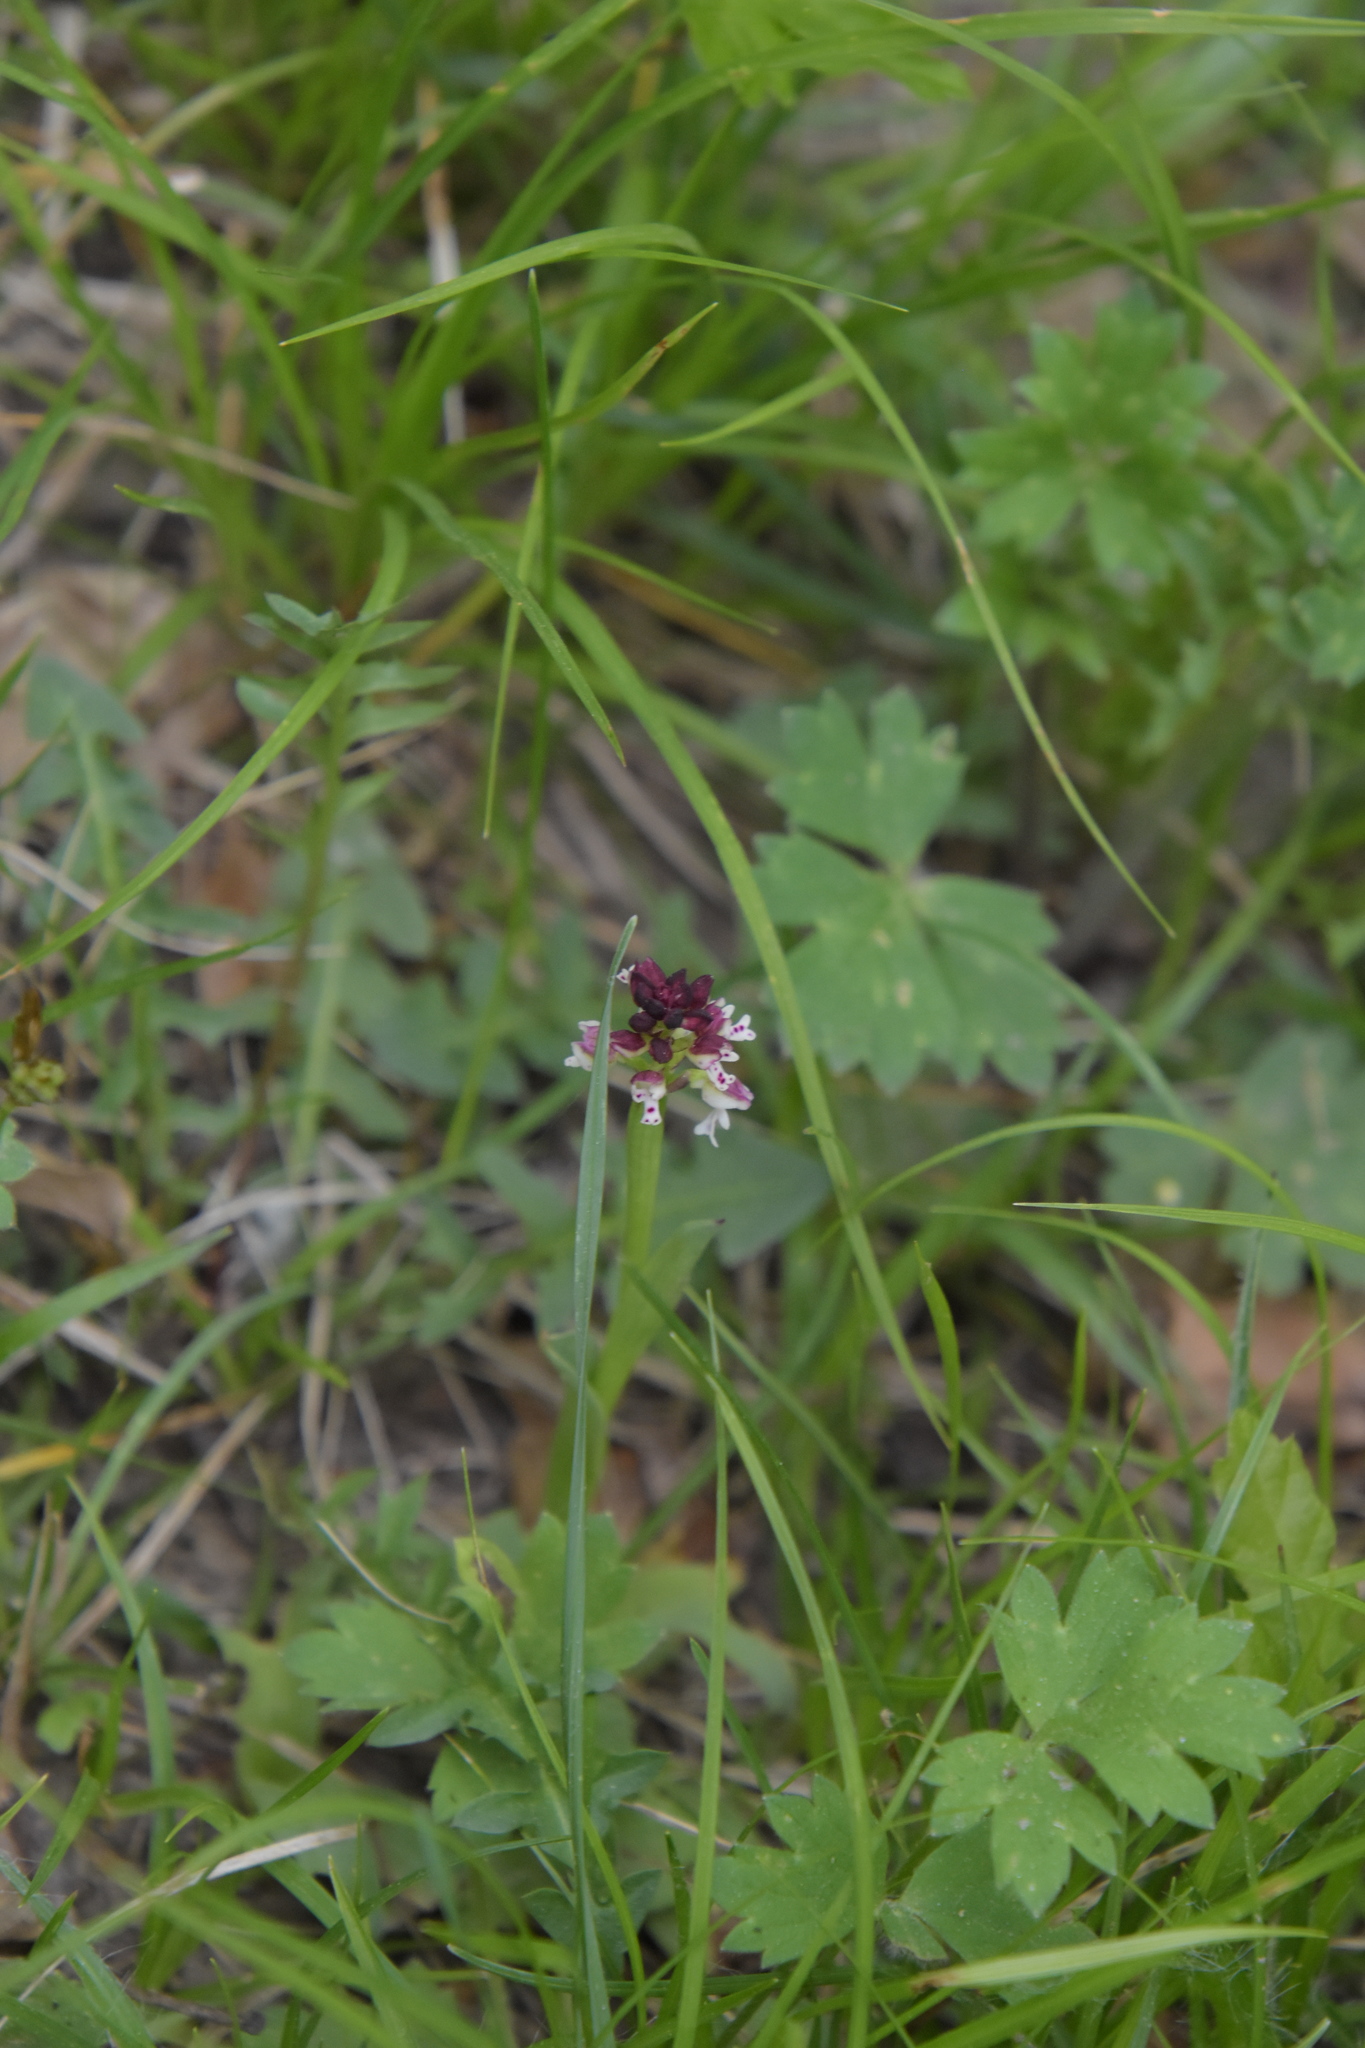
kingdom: Plantae
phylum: Tracheophyta
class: Liliopsida
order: Asparagales
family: Orchidaceae
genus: Neotinea
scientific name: Neotinea ustulata
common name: Burnt orchid
